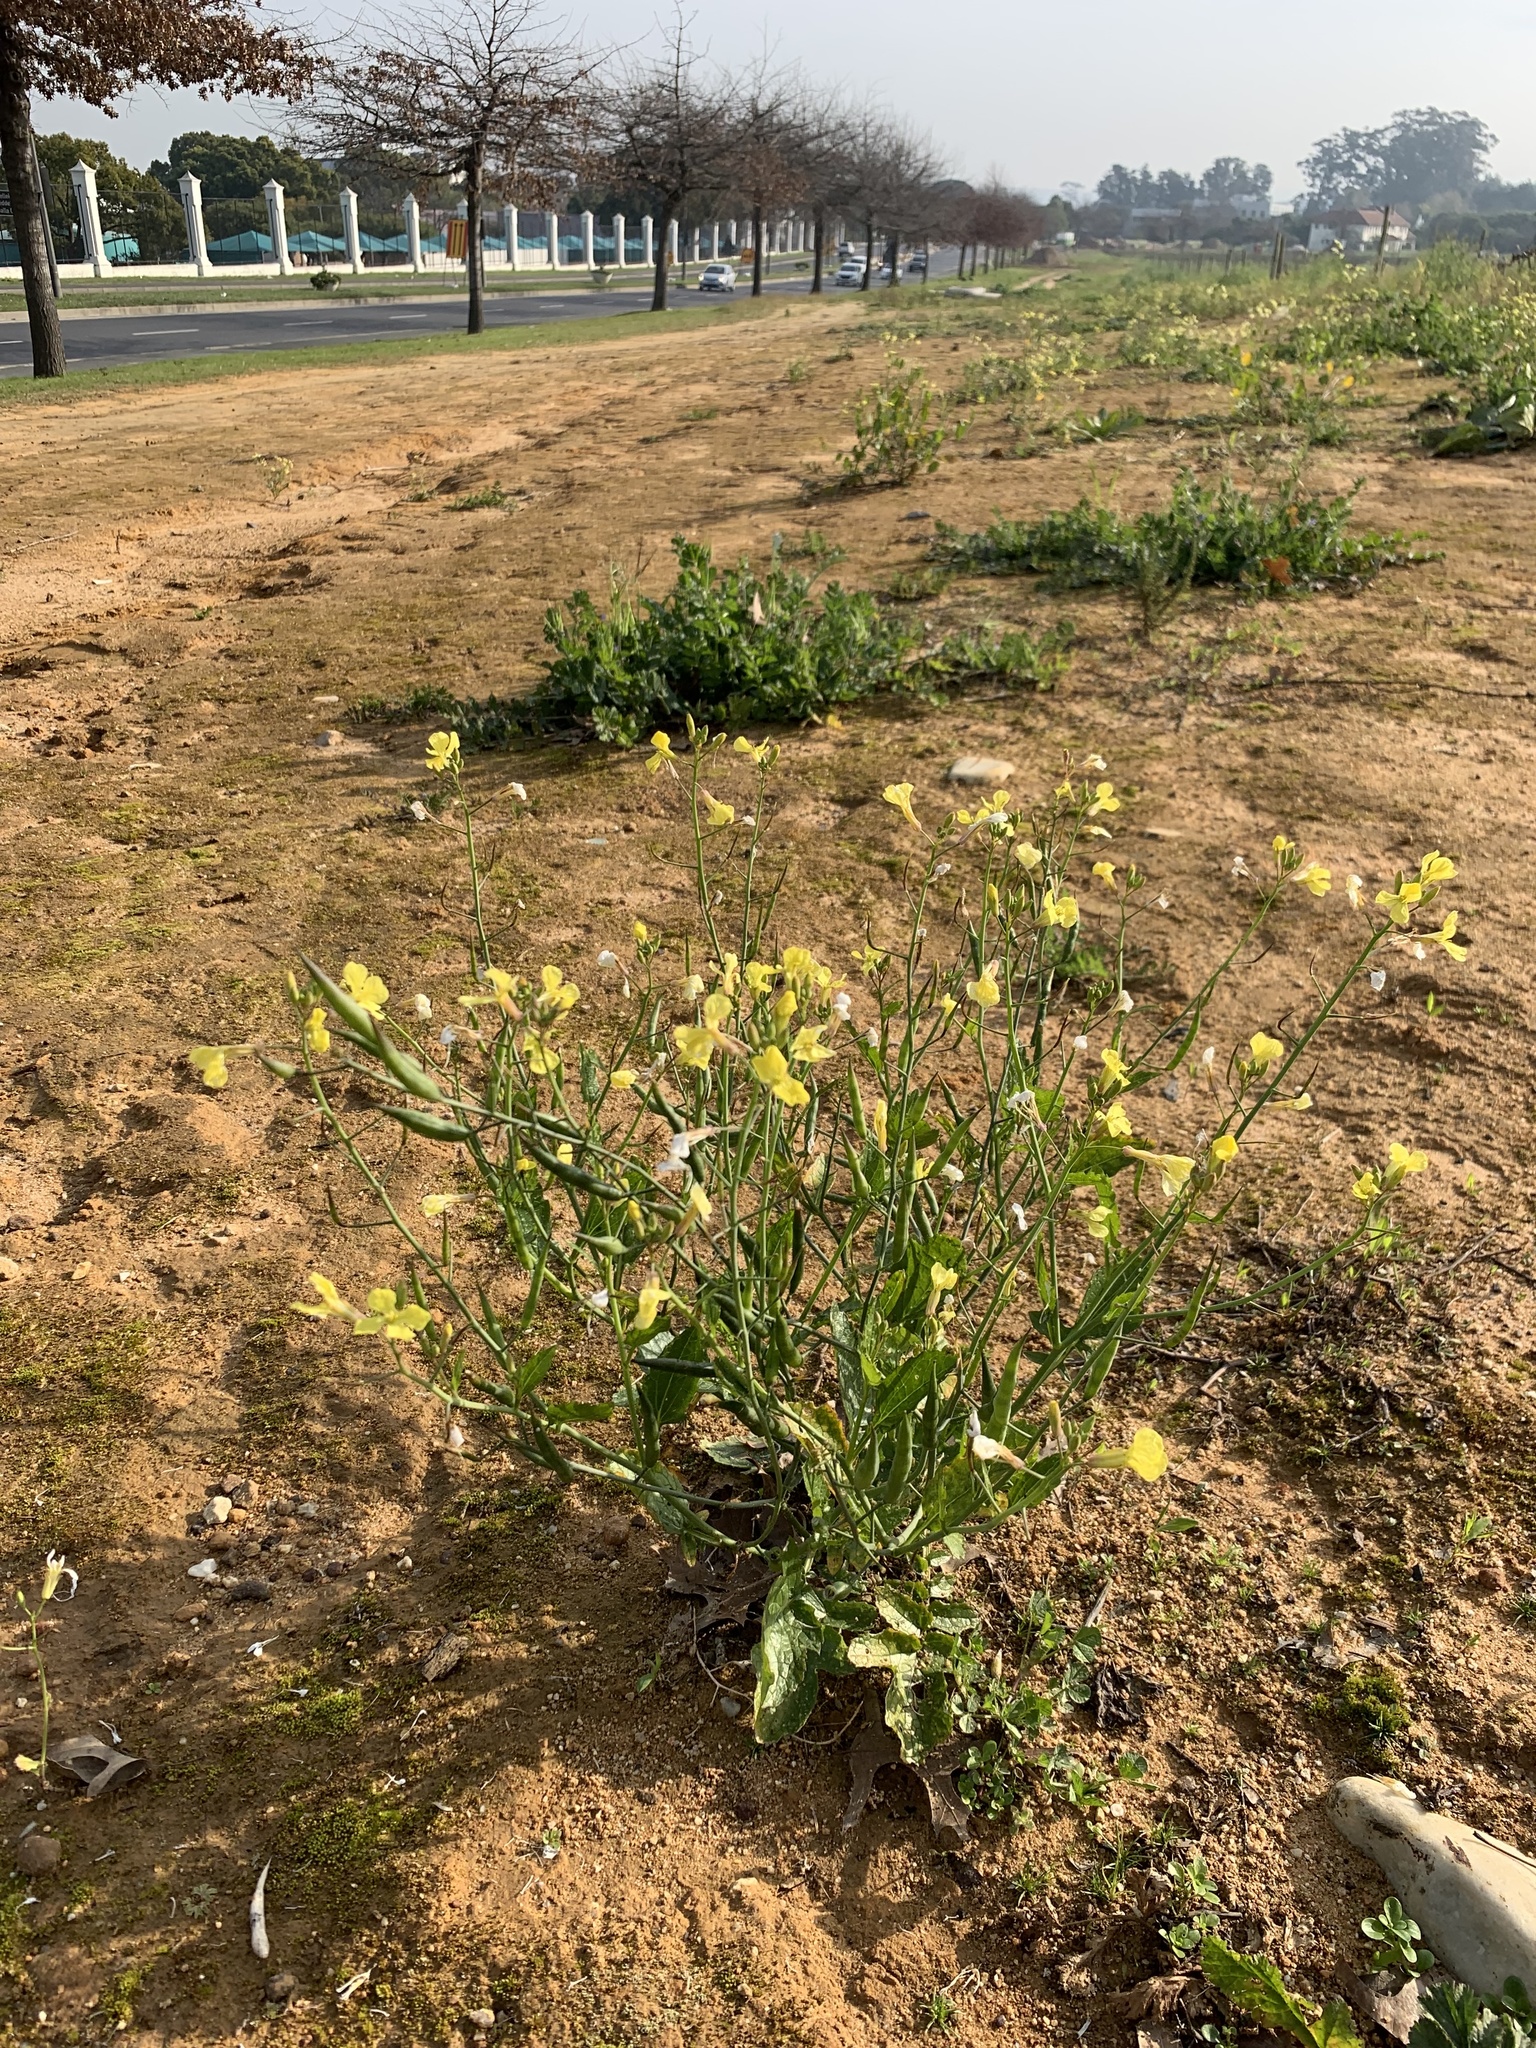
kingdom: Plantae
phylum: Tracheophyta
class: Magnoliopsida
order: Brassicales
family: Brassicaceae
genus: Raphanus
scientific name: Raphanus raphanistrum
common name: Wild radish
